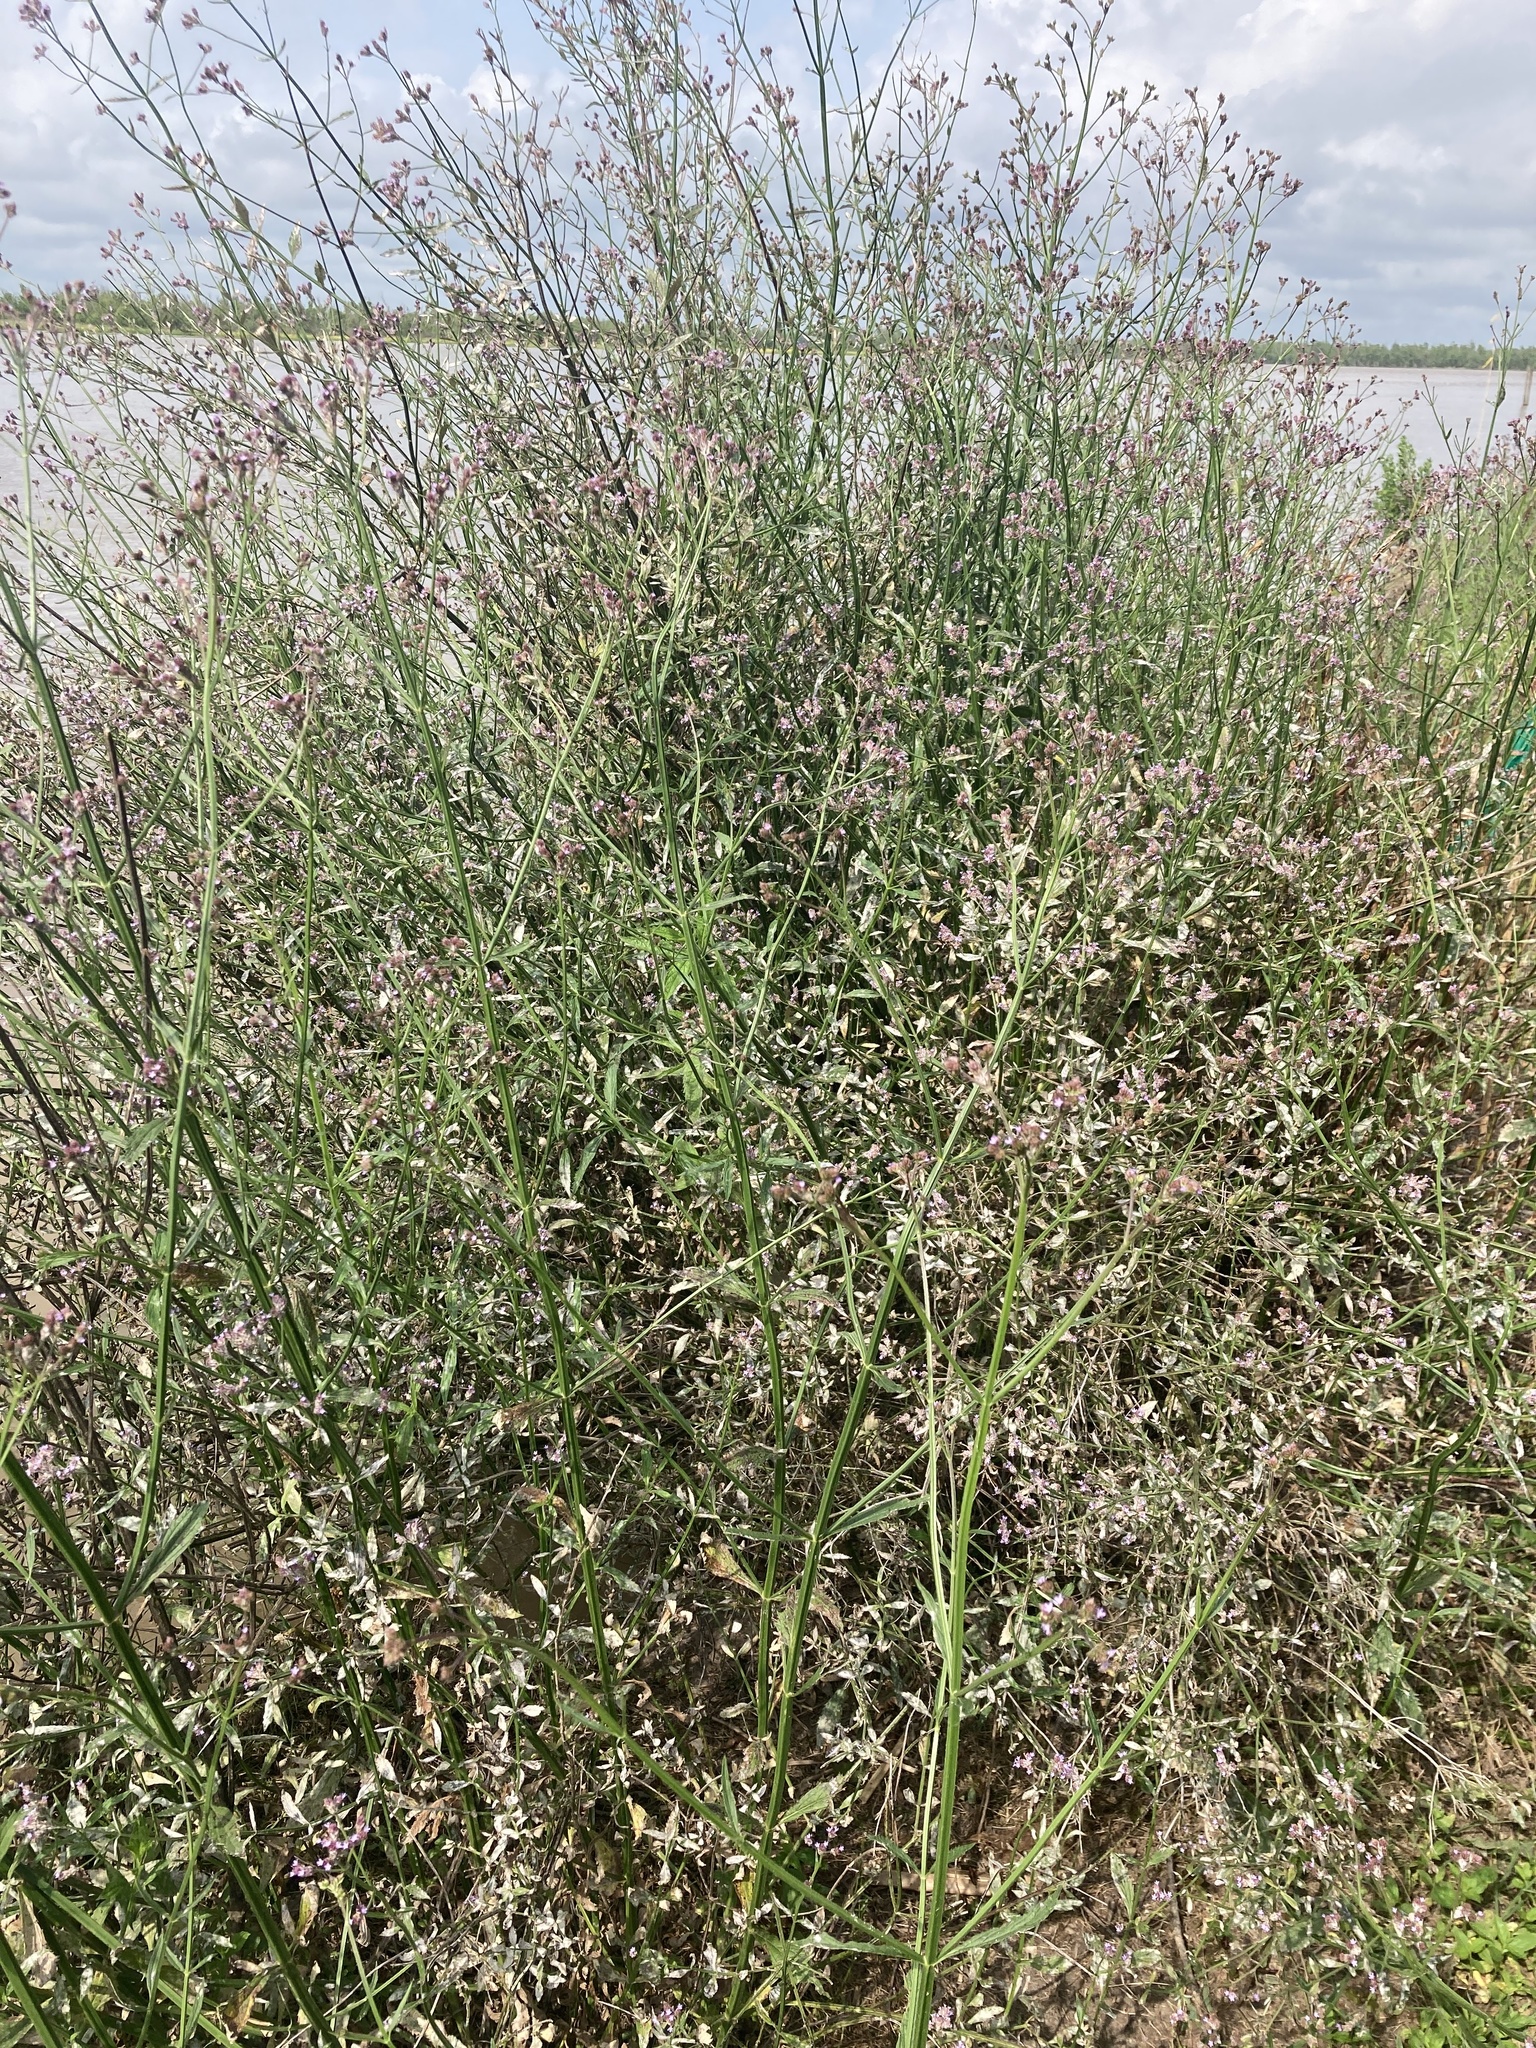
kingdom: Plantae
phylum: Tracheophyta
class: Magnoliopsida
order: Lamiales
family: Verbenaceae
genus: Verbena
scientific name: Verbena brasiliensis
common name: Brazilian vervain
